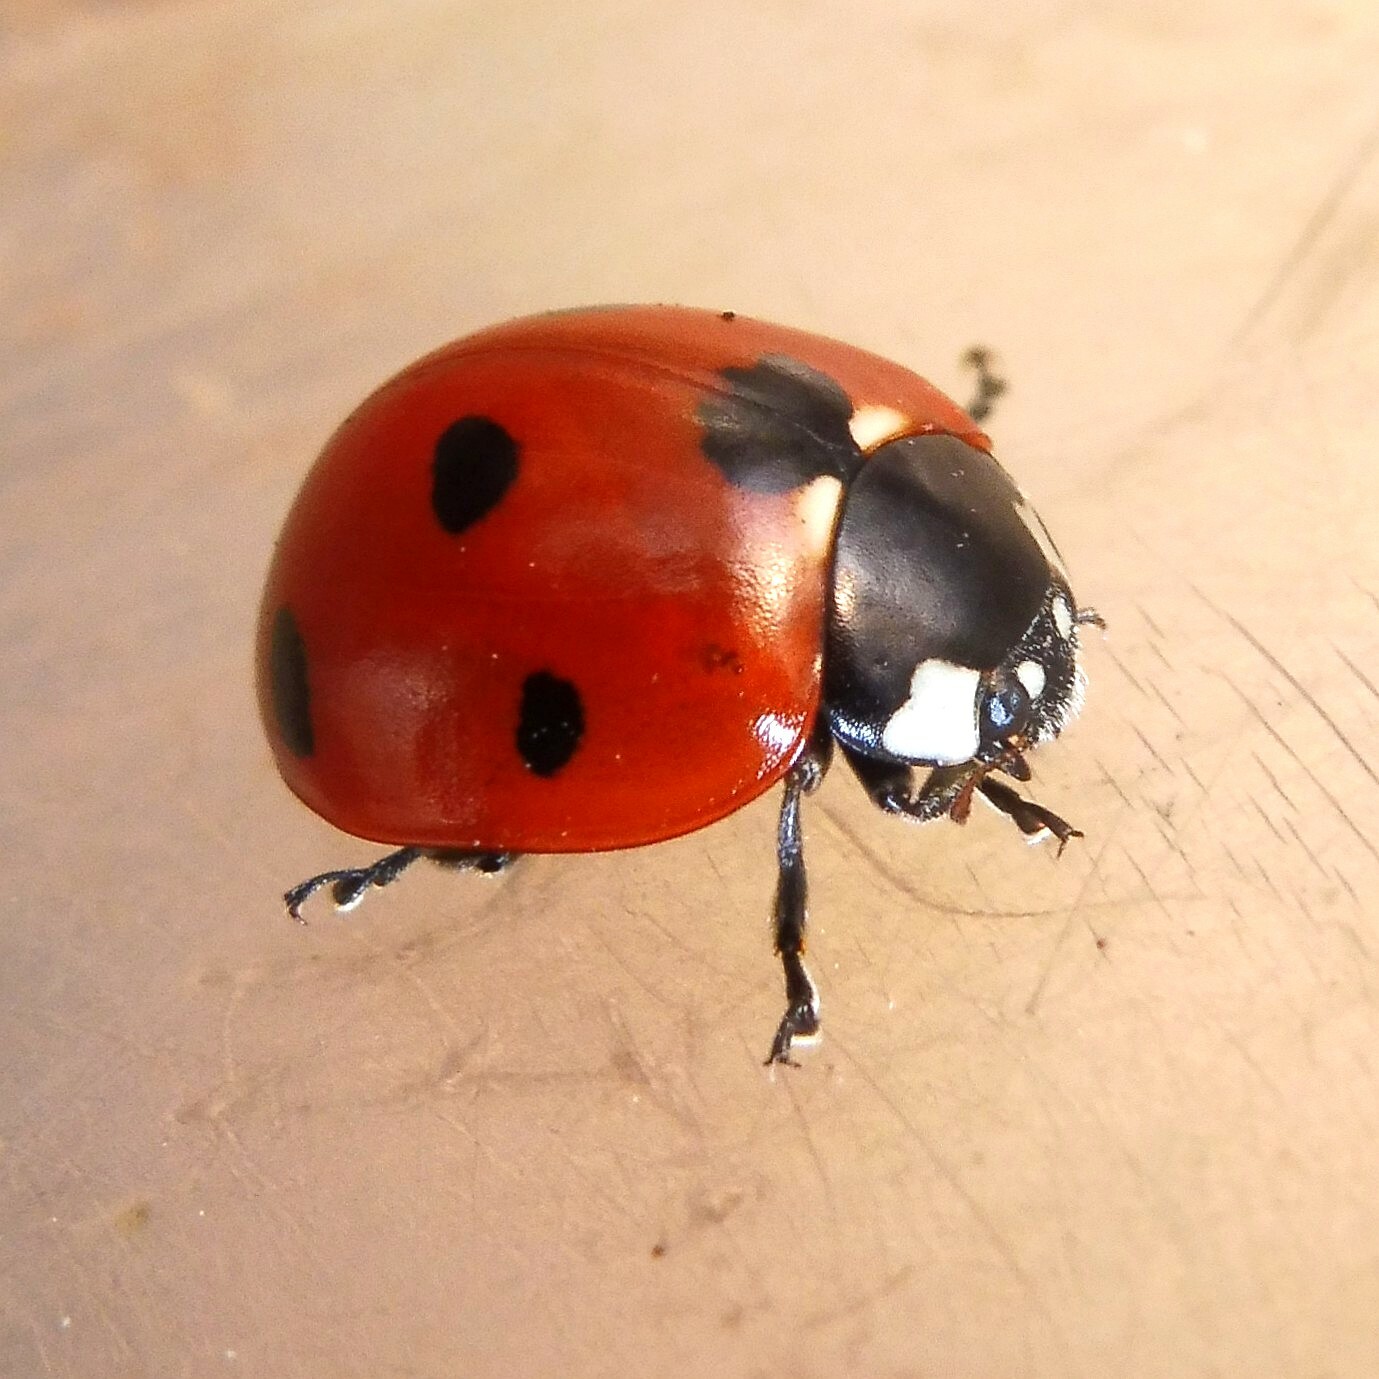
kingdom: Animalia
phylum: Arthropoda
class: Insecta
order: Coleoptera
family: Coccinellidae
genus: Coccinella
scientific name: Coccinella septempunctata
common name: Sevenspotted lady beetle
